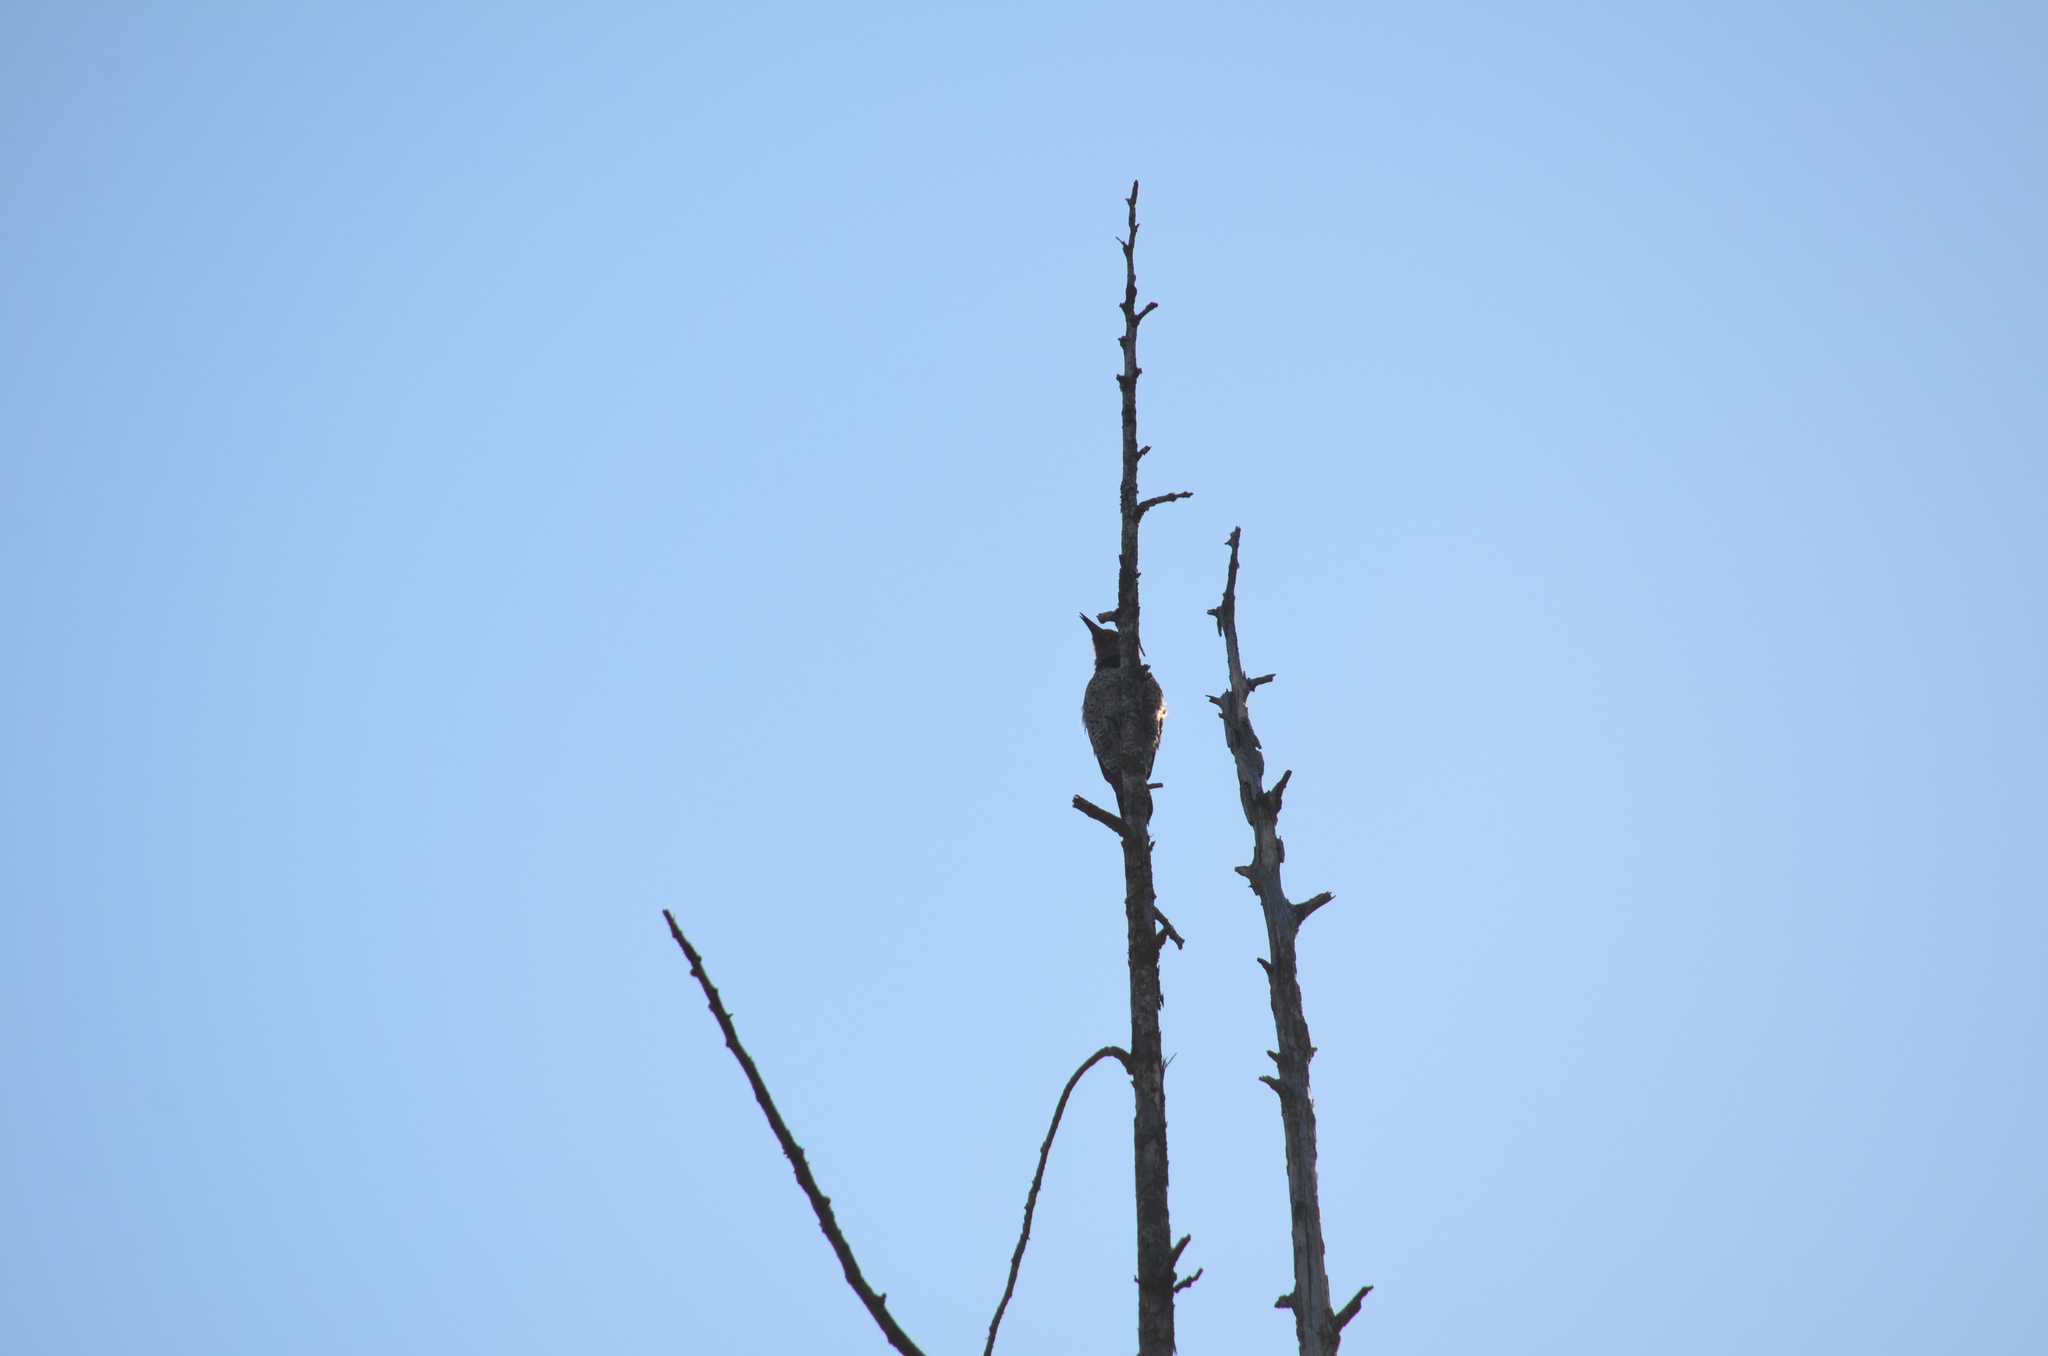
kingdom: Animalia
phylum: Chordata
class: Aves
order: Piciformes
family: Picidae
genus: Colaptes
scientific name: Colaptes auratus
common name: Northern flicker
